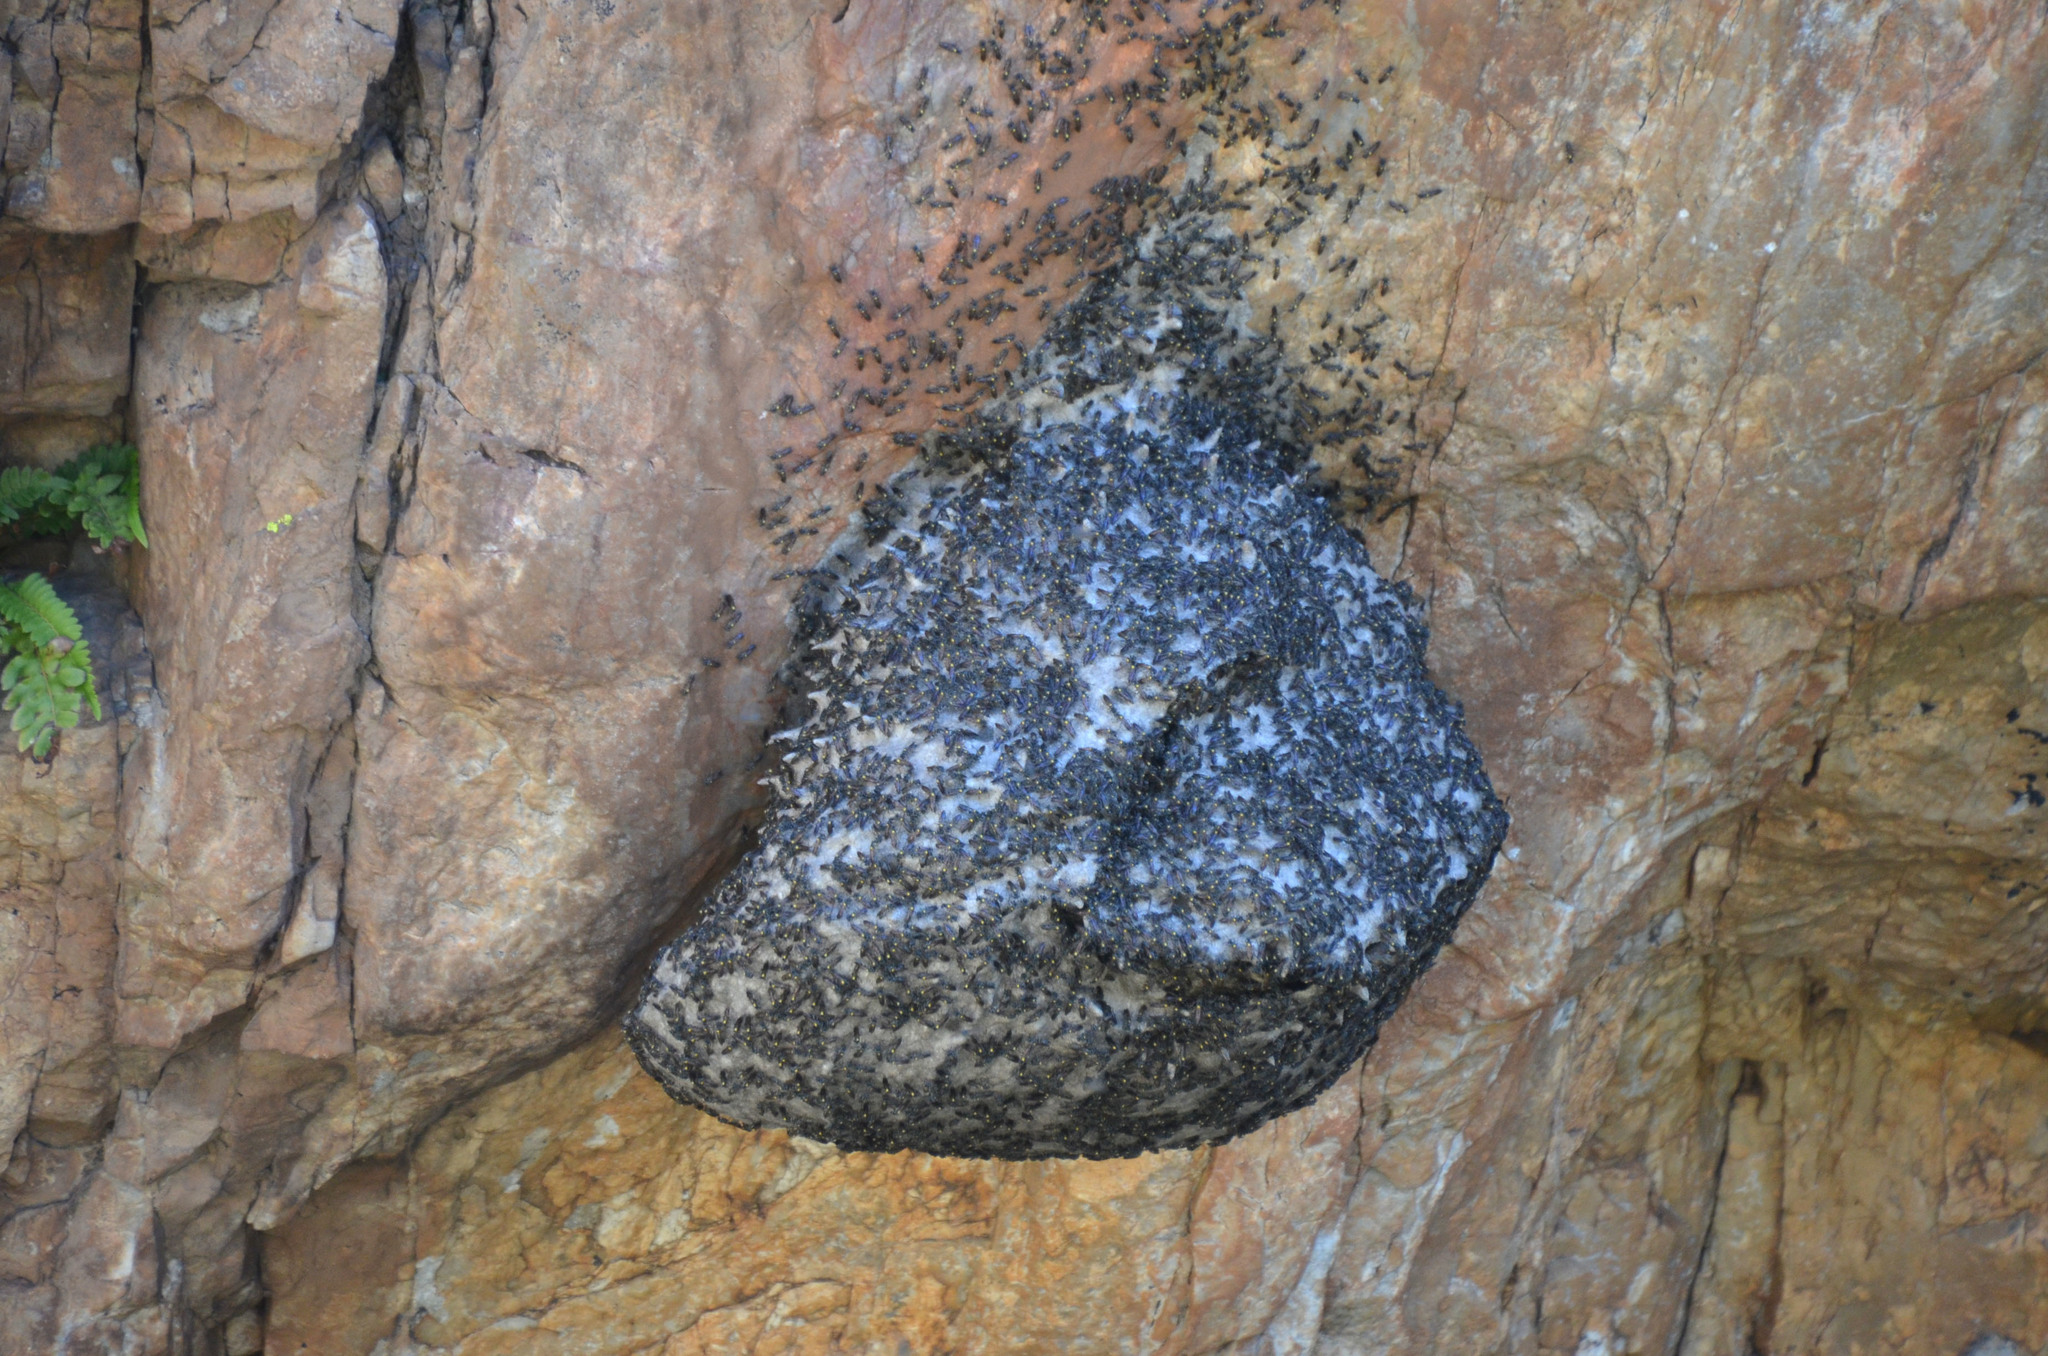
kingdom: Animalia
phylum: Arthropoda
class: Insecta
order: Hymenoptera
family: Eumenidae
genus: Polybia
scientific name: Polybia scutellaris
